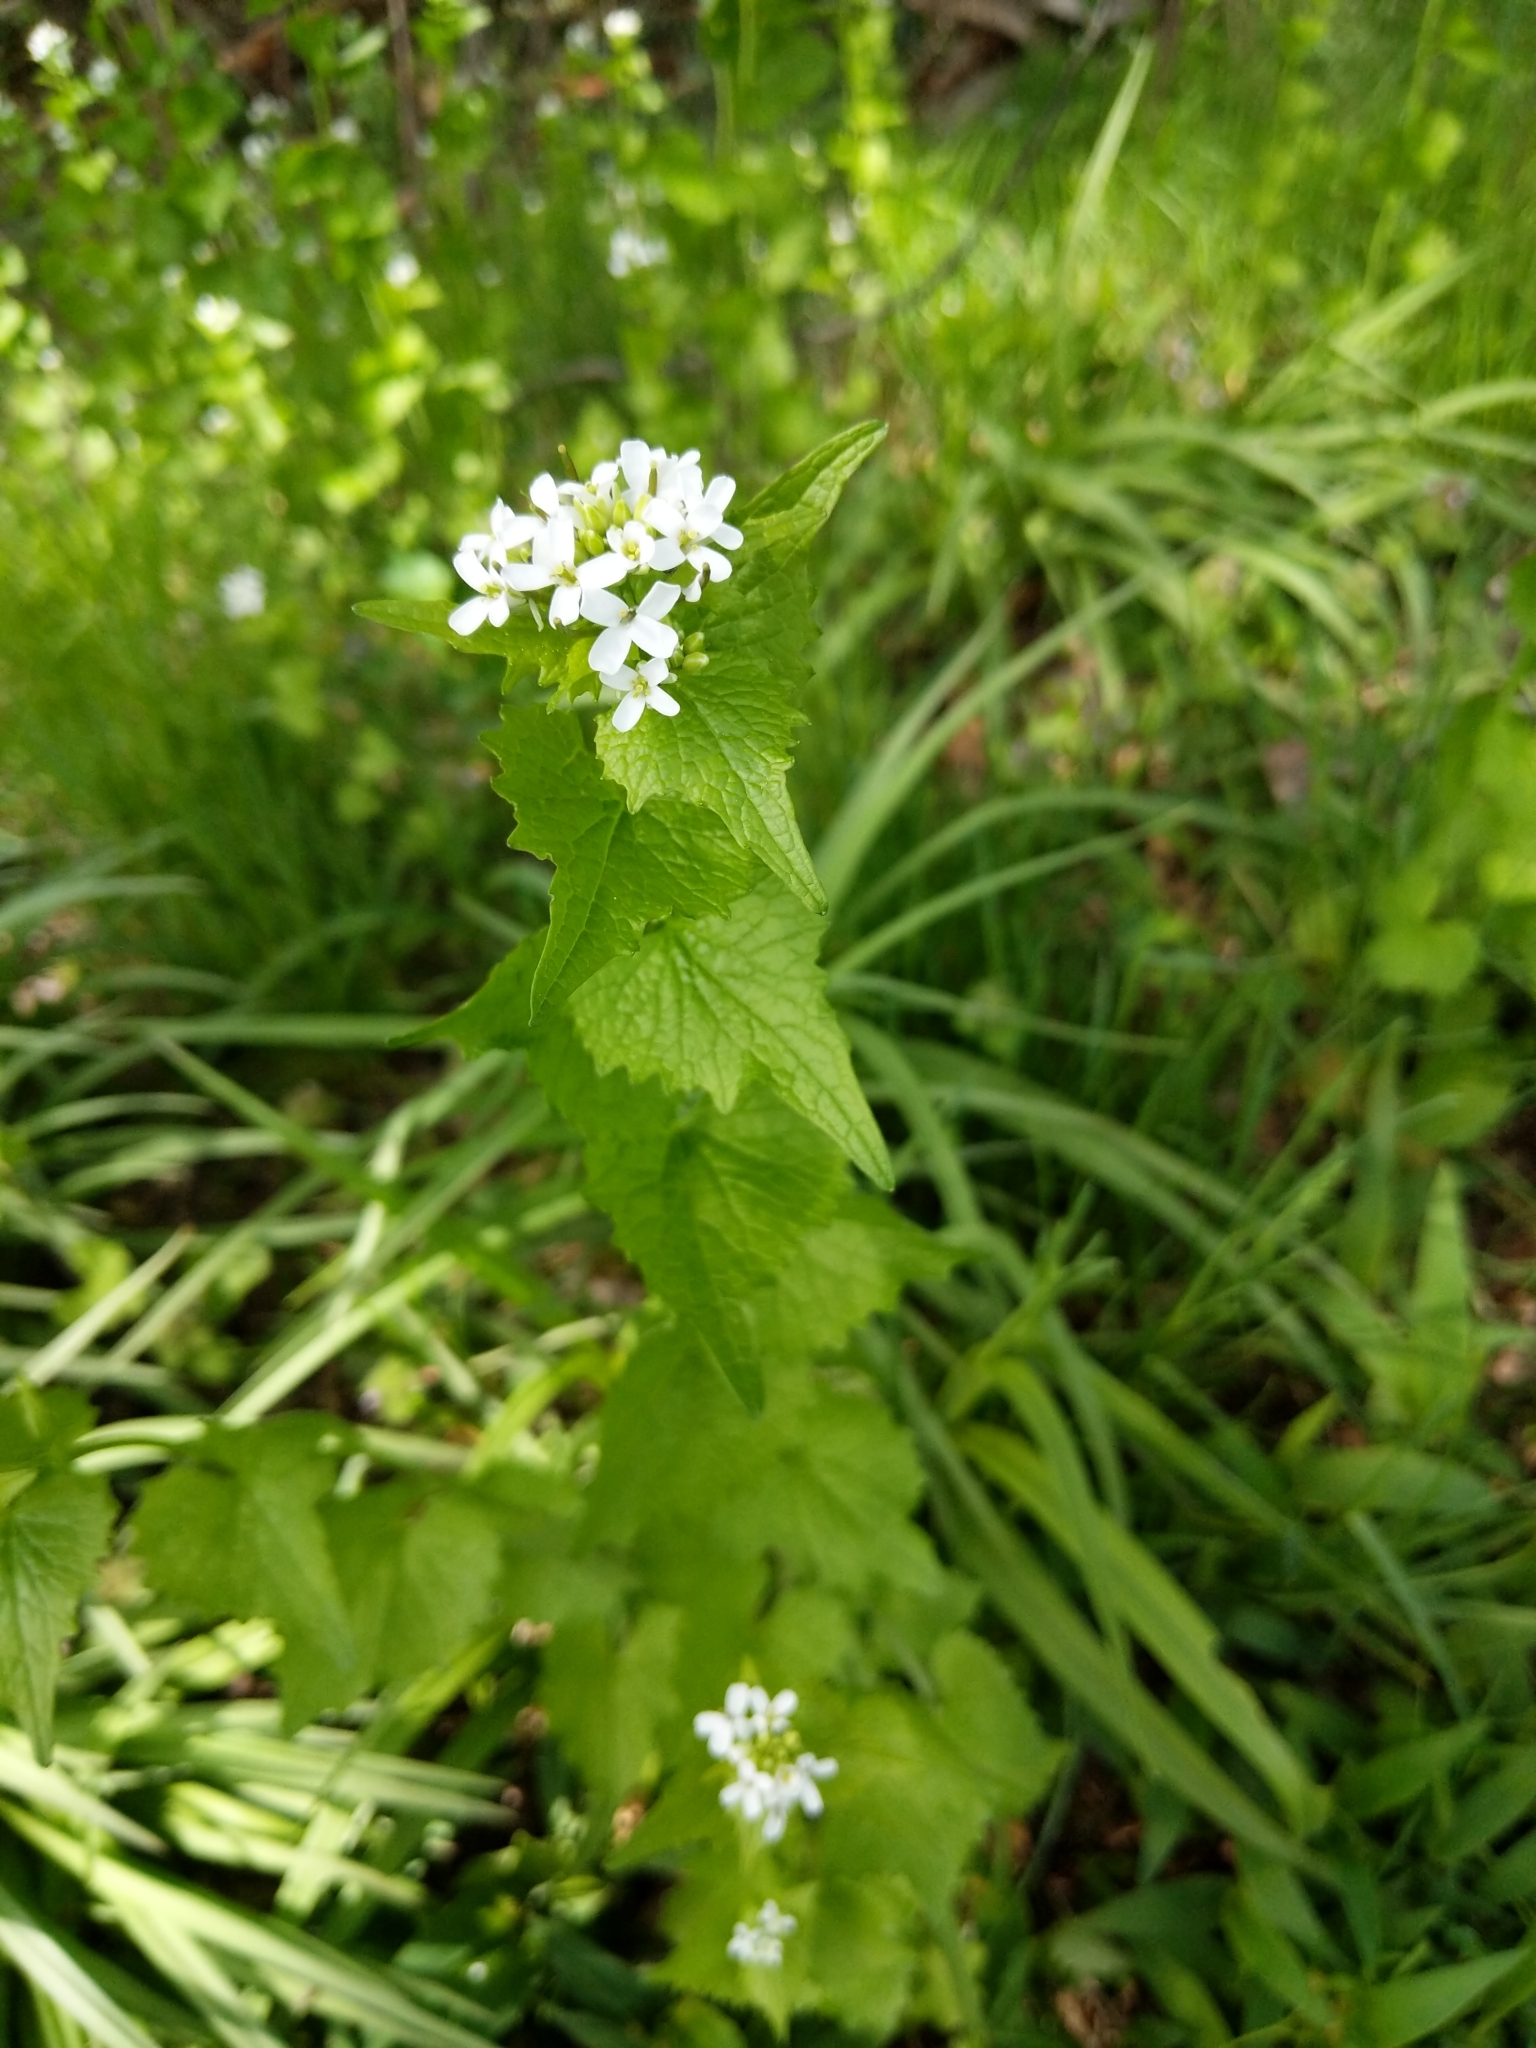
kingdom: Plantae
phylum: Tracheophyta
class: Magnoliopsida
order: Brassicales
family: Brassicaceae
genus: Alliaria
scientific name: Alliaria petiolata
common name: Garlic mustard
